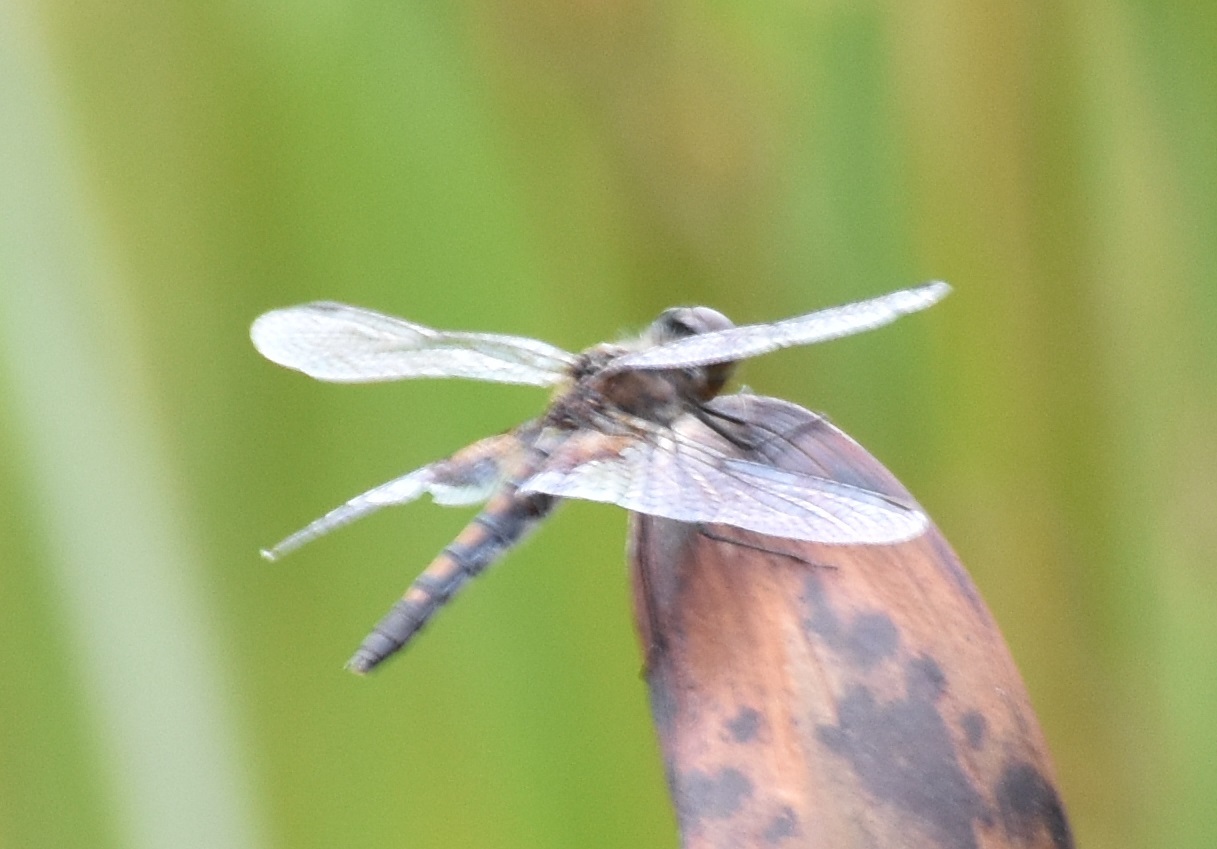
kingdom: Animalia
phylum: Arthropoda
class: Insecta
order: Odonata
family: Libellulidae
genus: Celithemis
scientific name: Celithemis martha
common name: Martha's pennant
